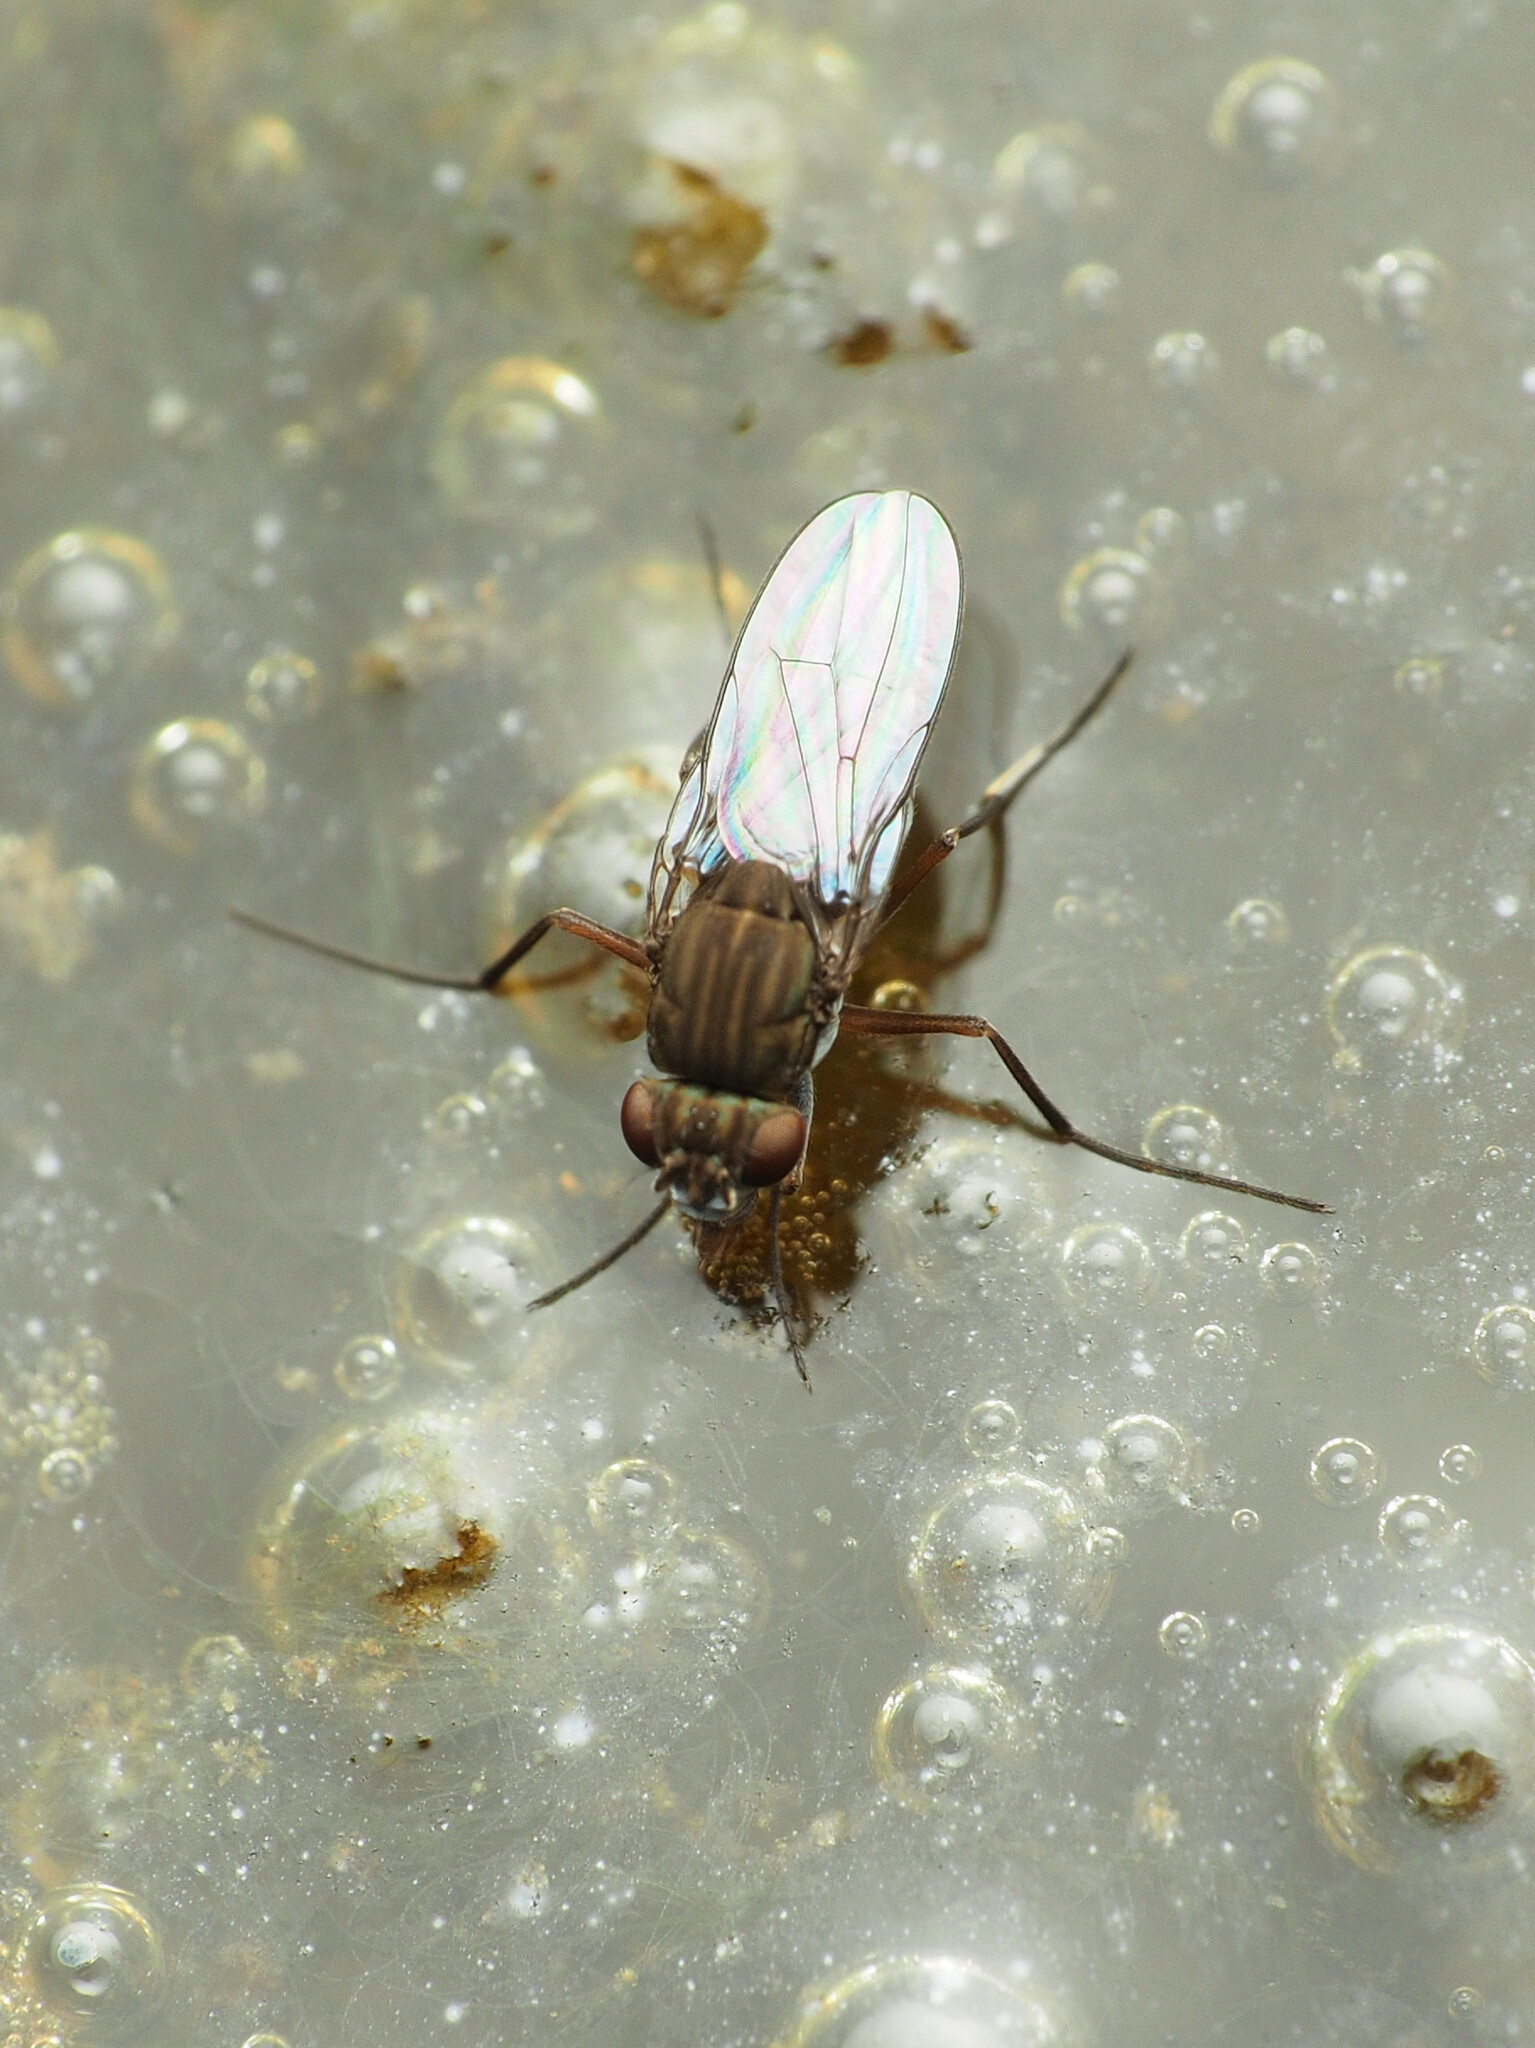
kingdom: Animalia
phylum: Arthropoda
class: Insecta
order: Diptera
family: Ephydridae
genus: Brachydeutera
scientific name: Brachydeutera argentata
